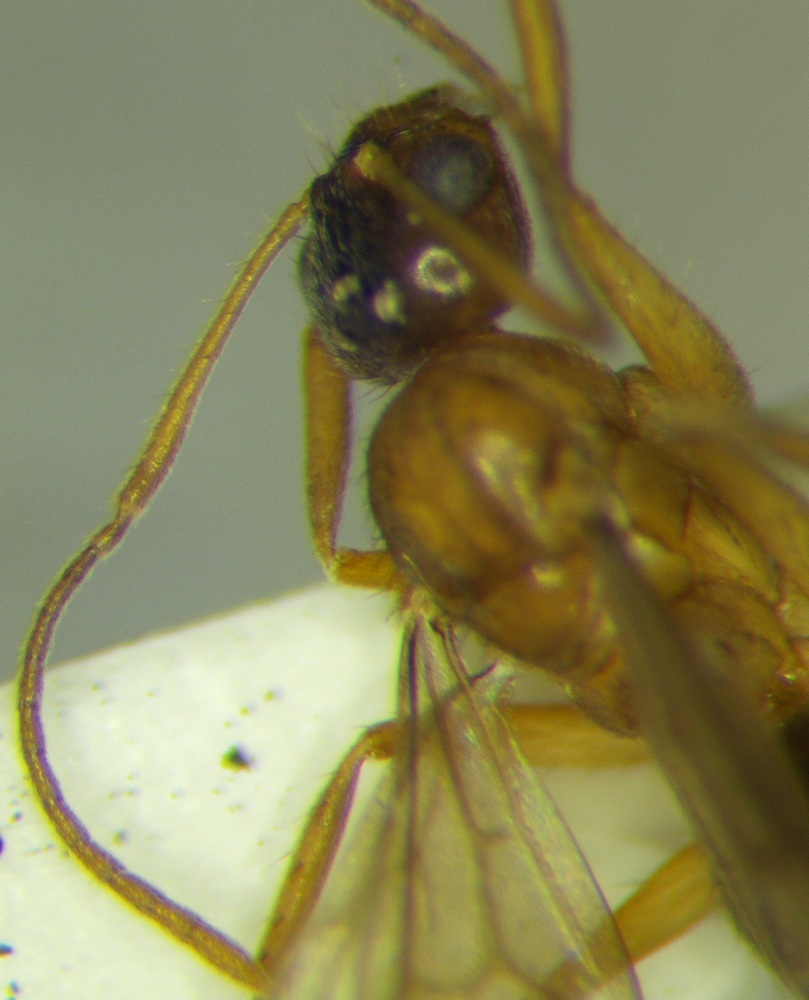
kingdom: Animalia
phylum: Arthropoda
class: Insecta
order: Hymenoptera
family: Formicidae
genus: Paratrechina
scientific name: Paratrechina jaegerskioeldi
